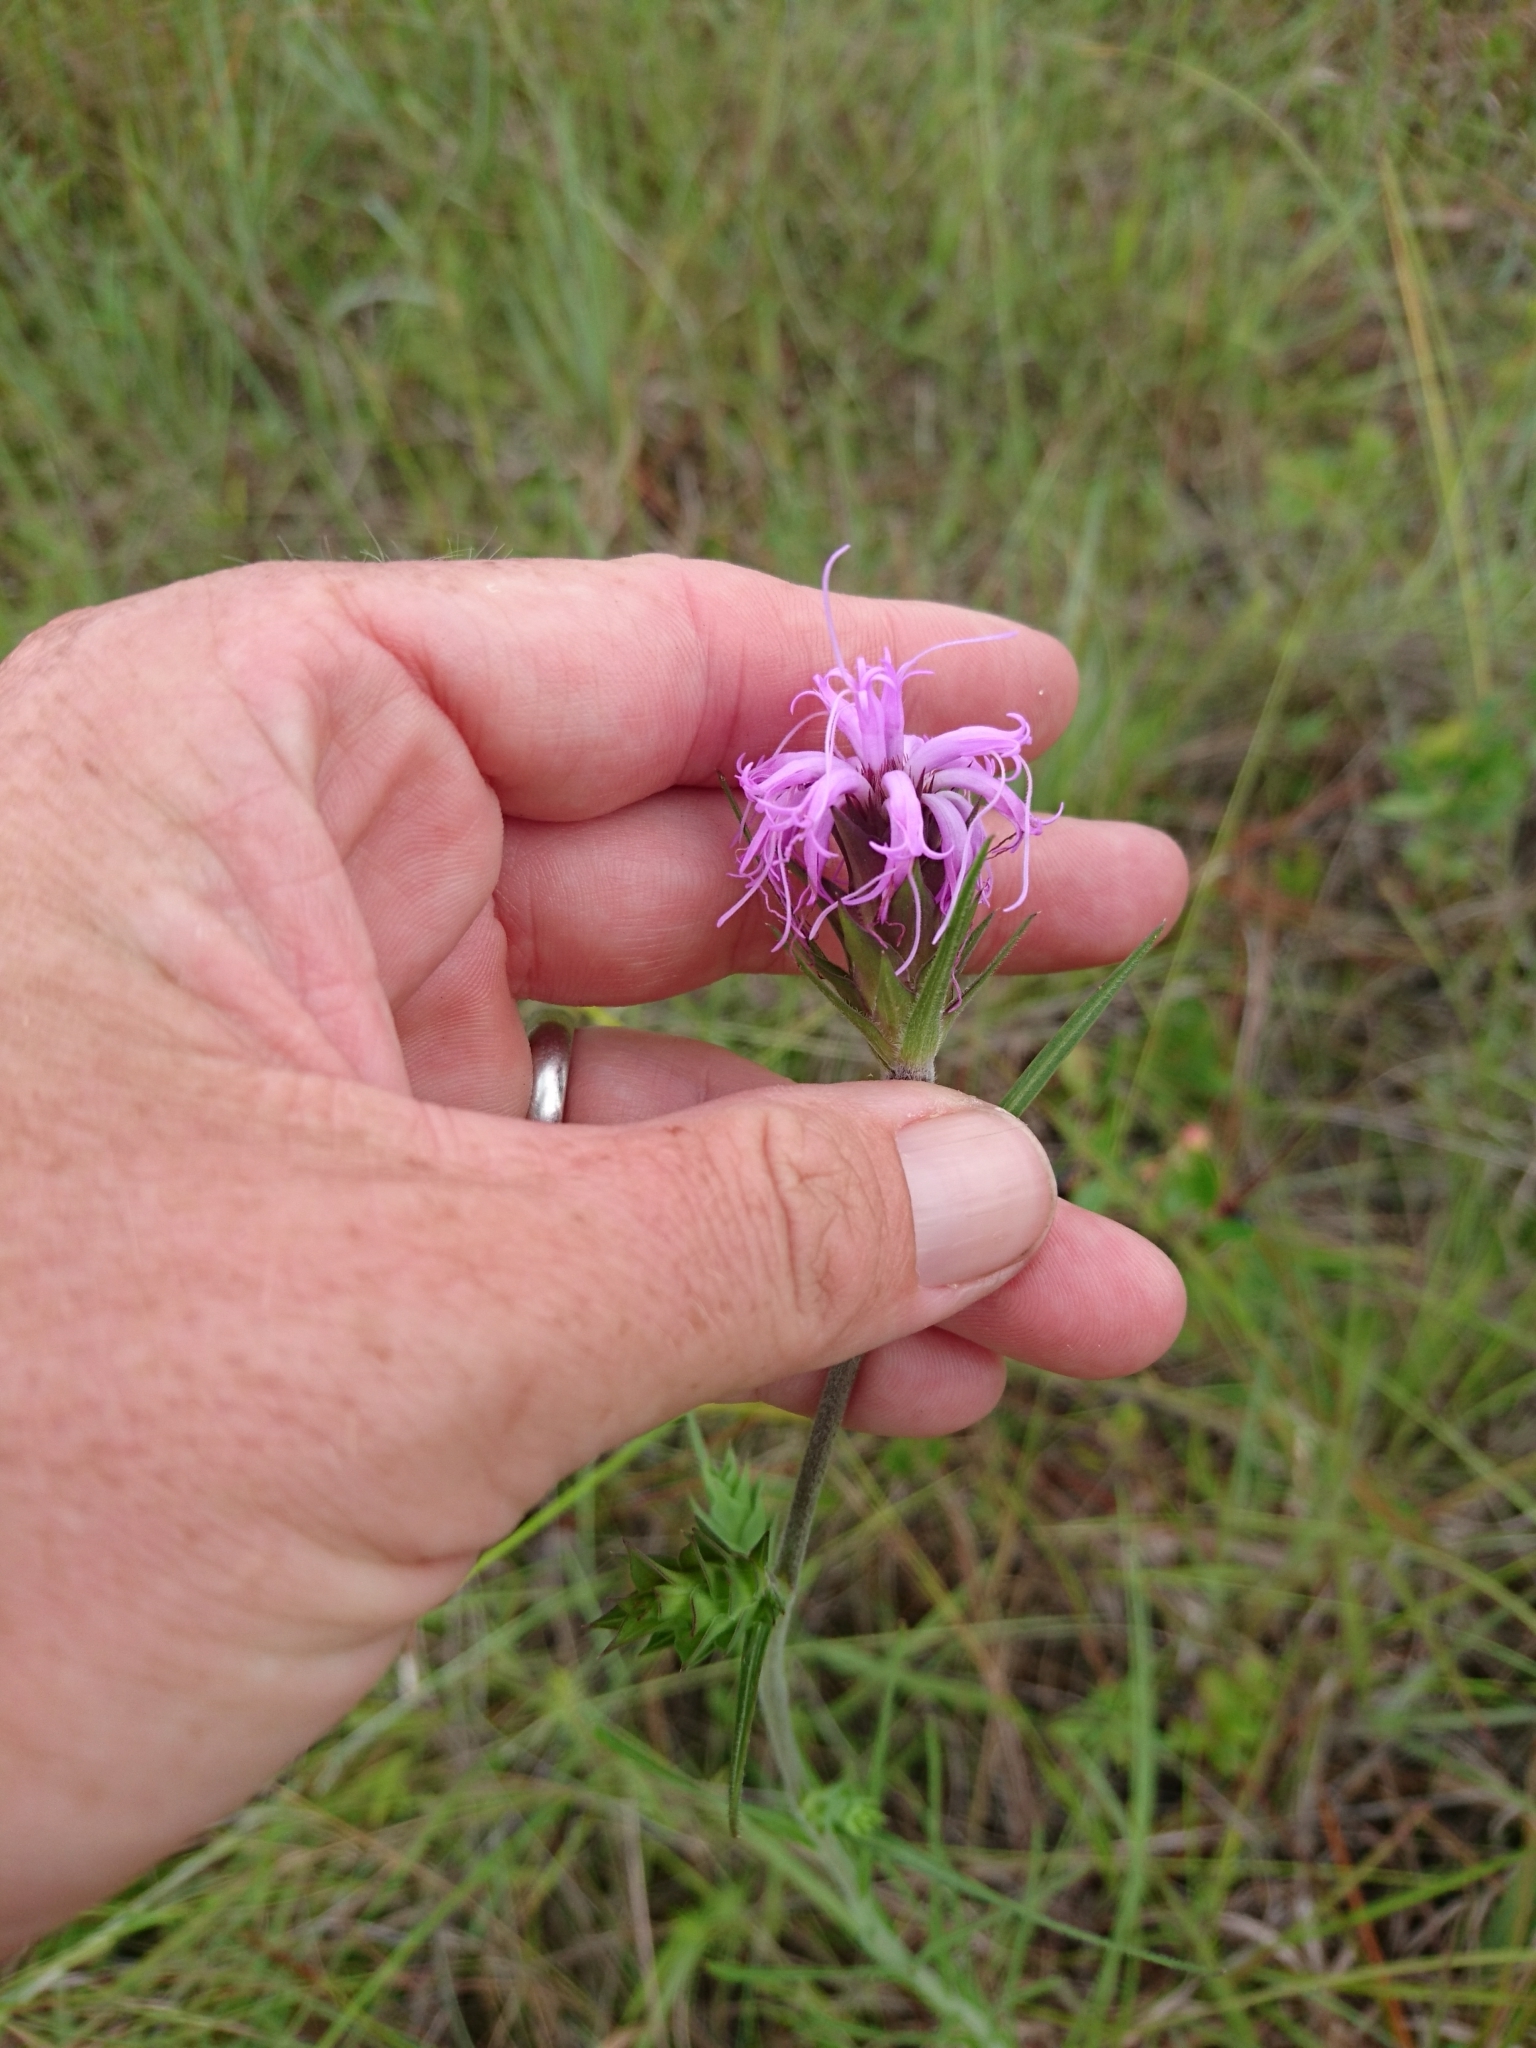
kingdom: Plantae
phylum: Tracheophyta
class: Magnoliopsida
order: Asterales
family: Asteraceae
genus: Liatris
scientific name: Liatris squarrosa
